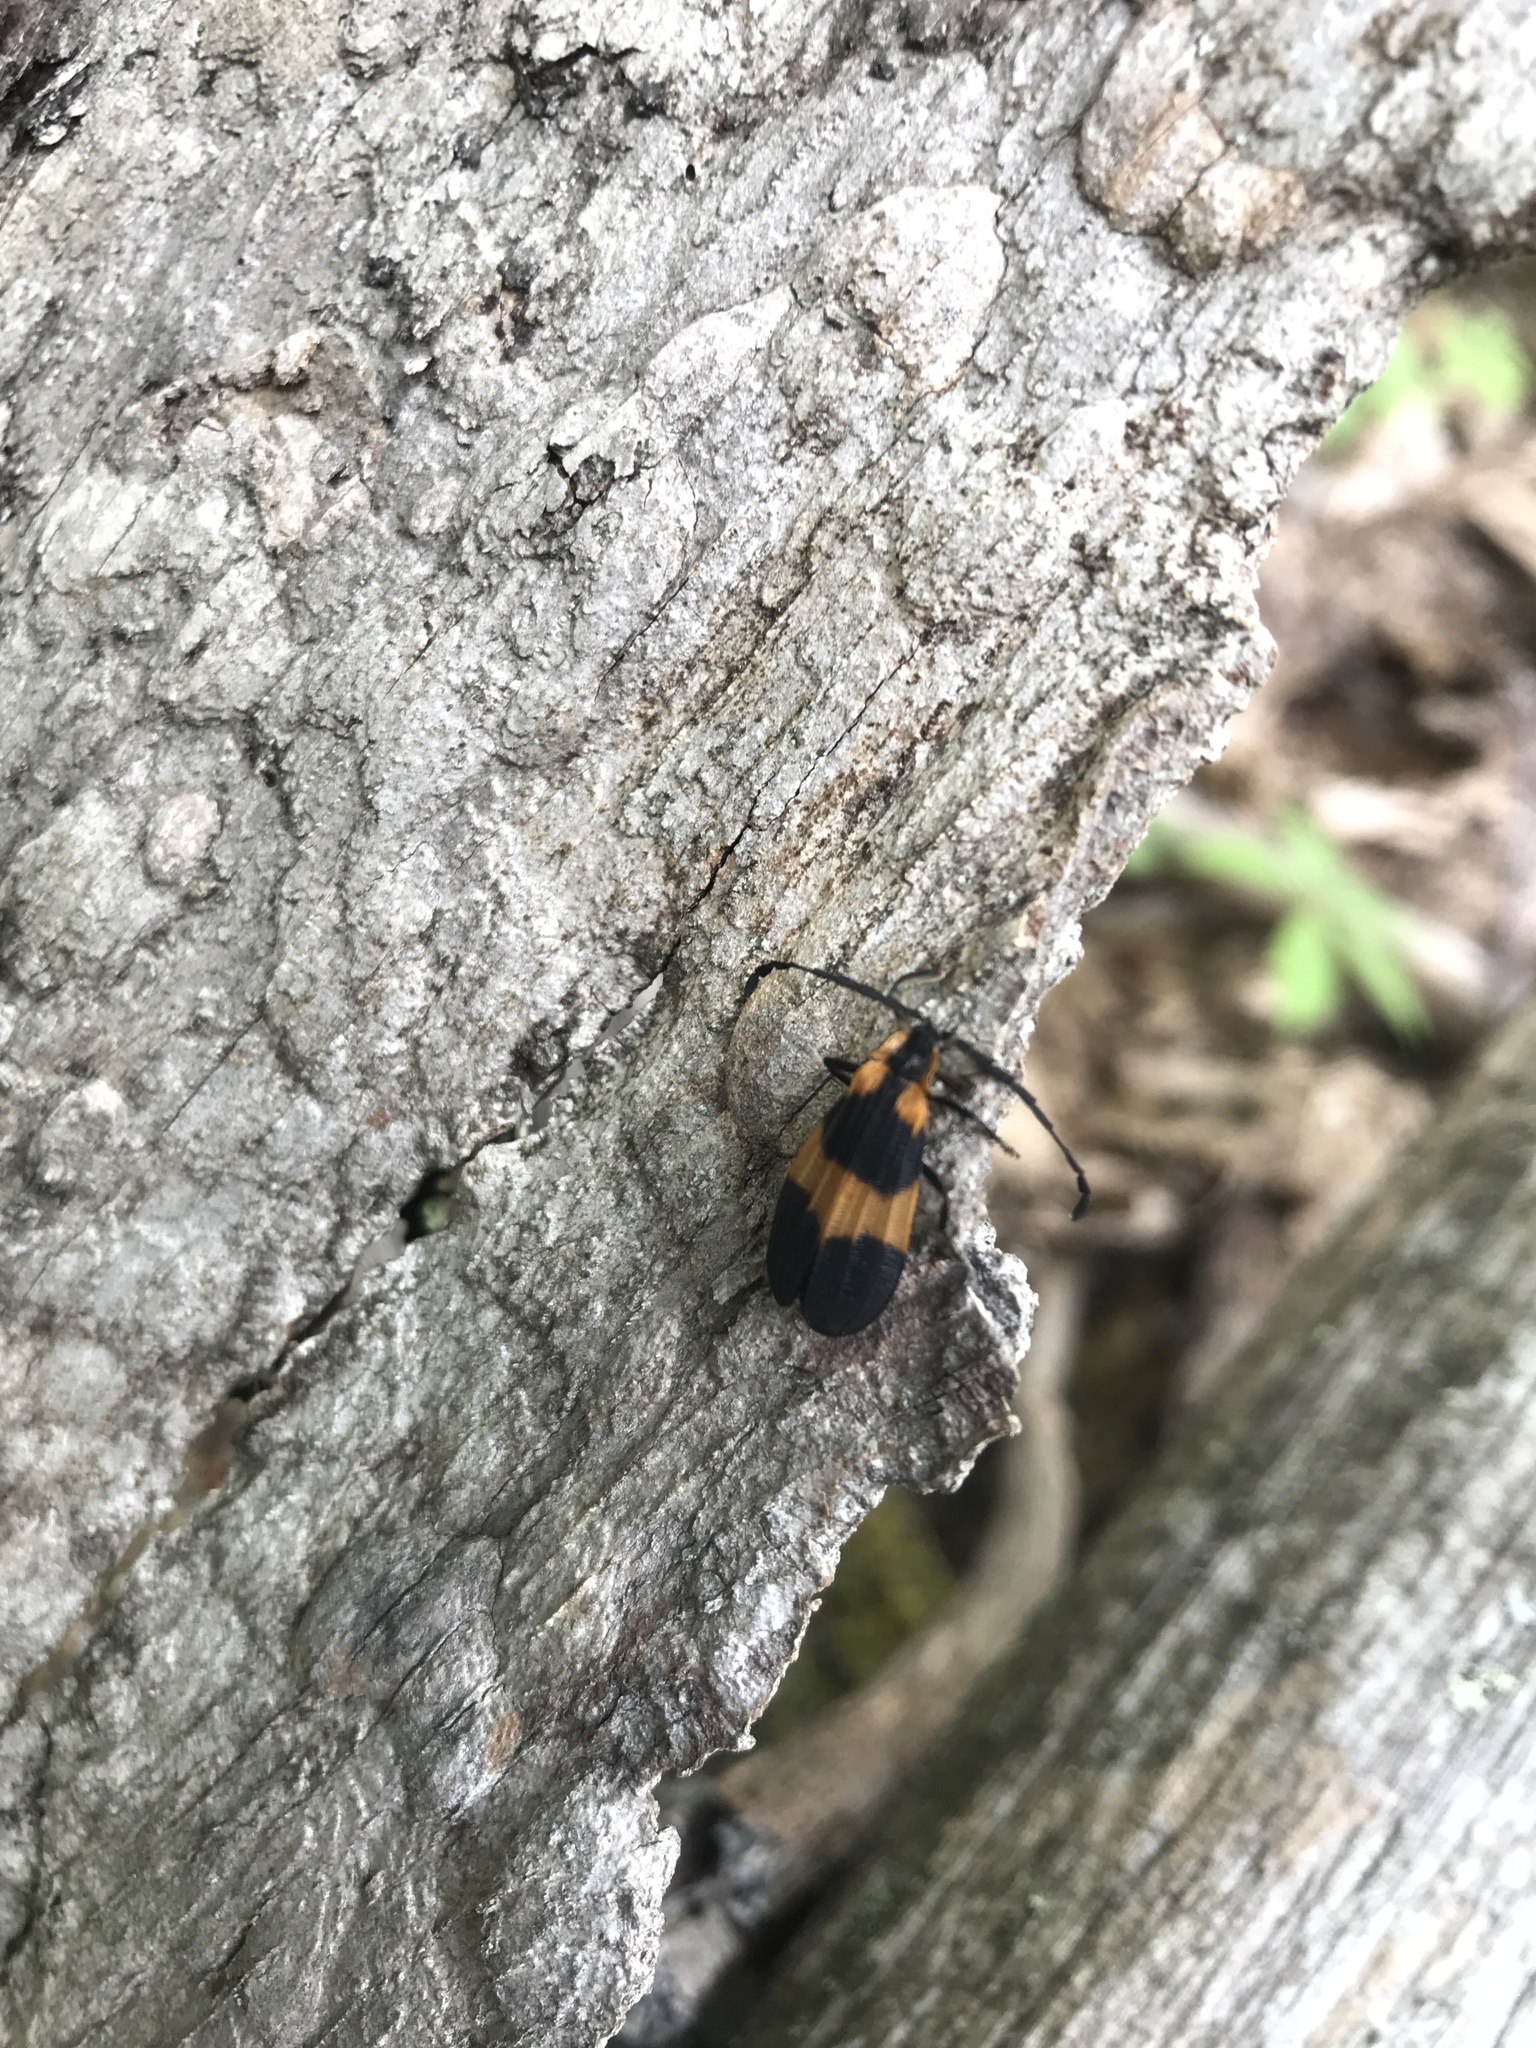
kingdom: Animalia
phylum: Arthropoda
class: Insecta
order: Coleoptera
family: Lycidae
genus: Calopteron
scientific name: Calopteron reticulatum
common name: Banded net-winged beetle
